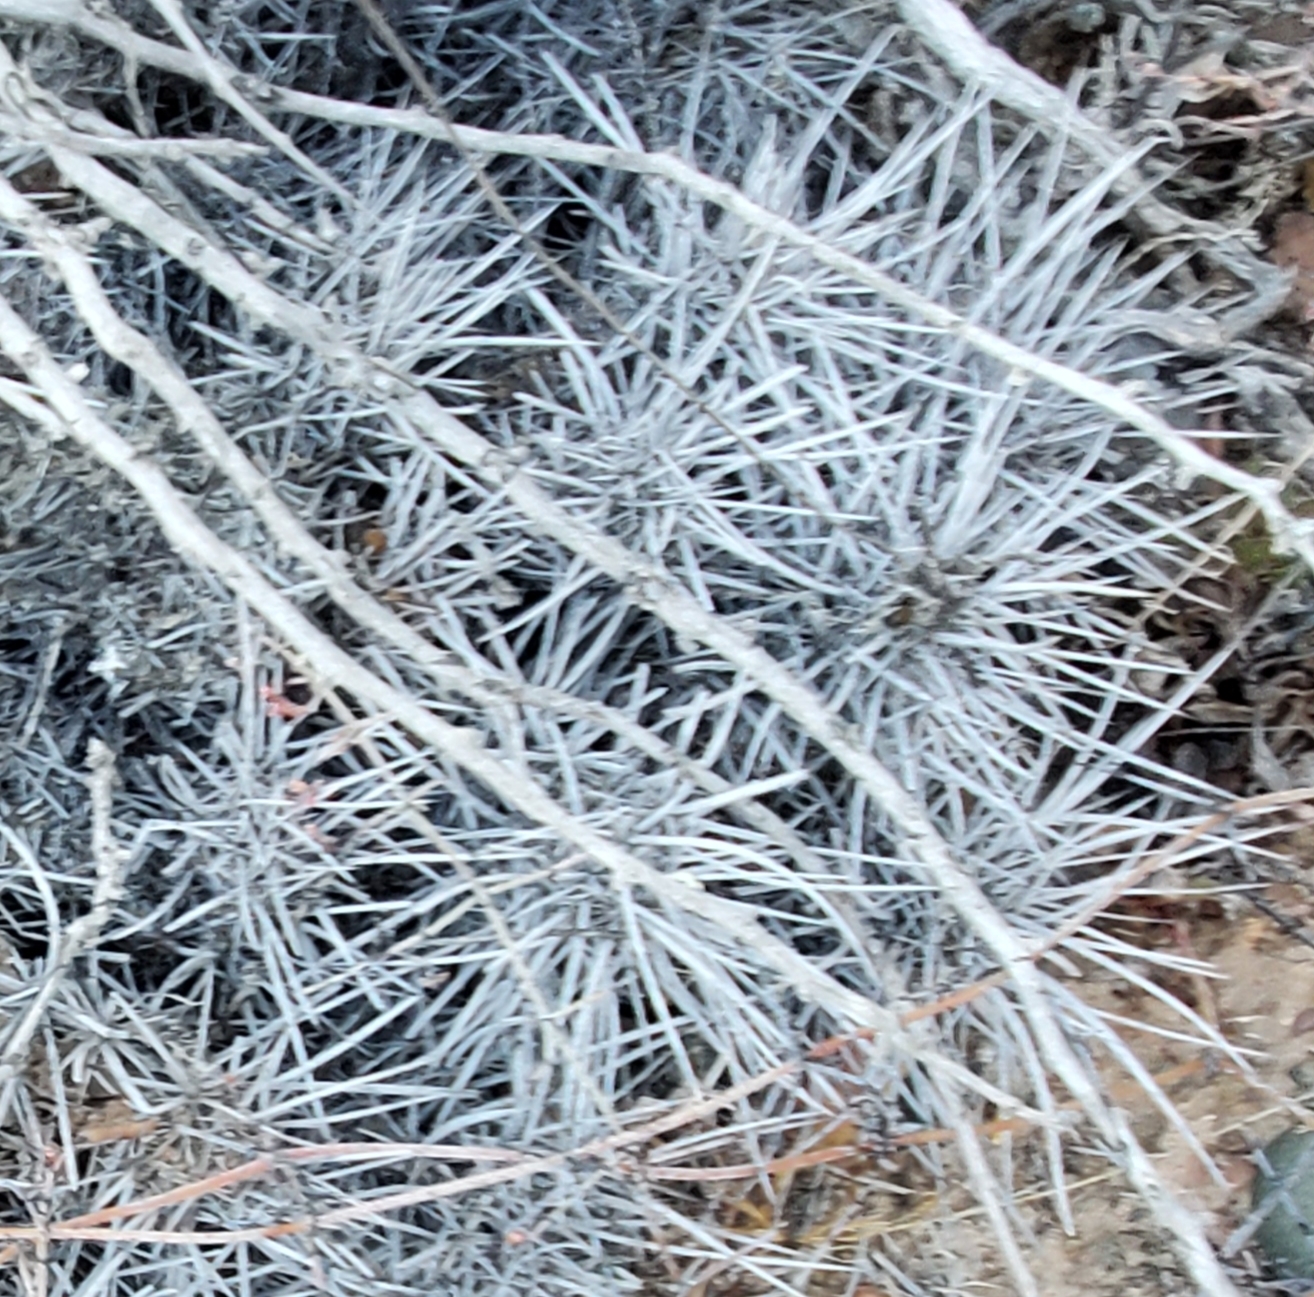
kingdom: Plantae
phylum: Tracheophyta
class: Magnoliopsida
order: Caryophyllales
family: Cactaceae
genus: Echinocereus
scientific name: Echinocereus maritimus
